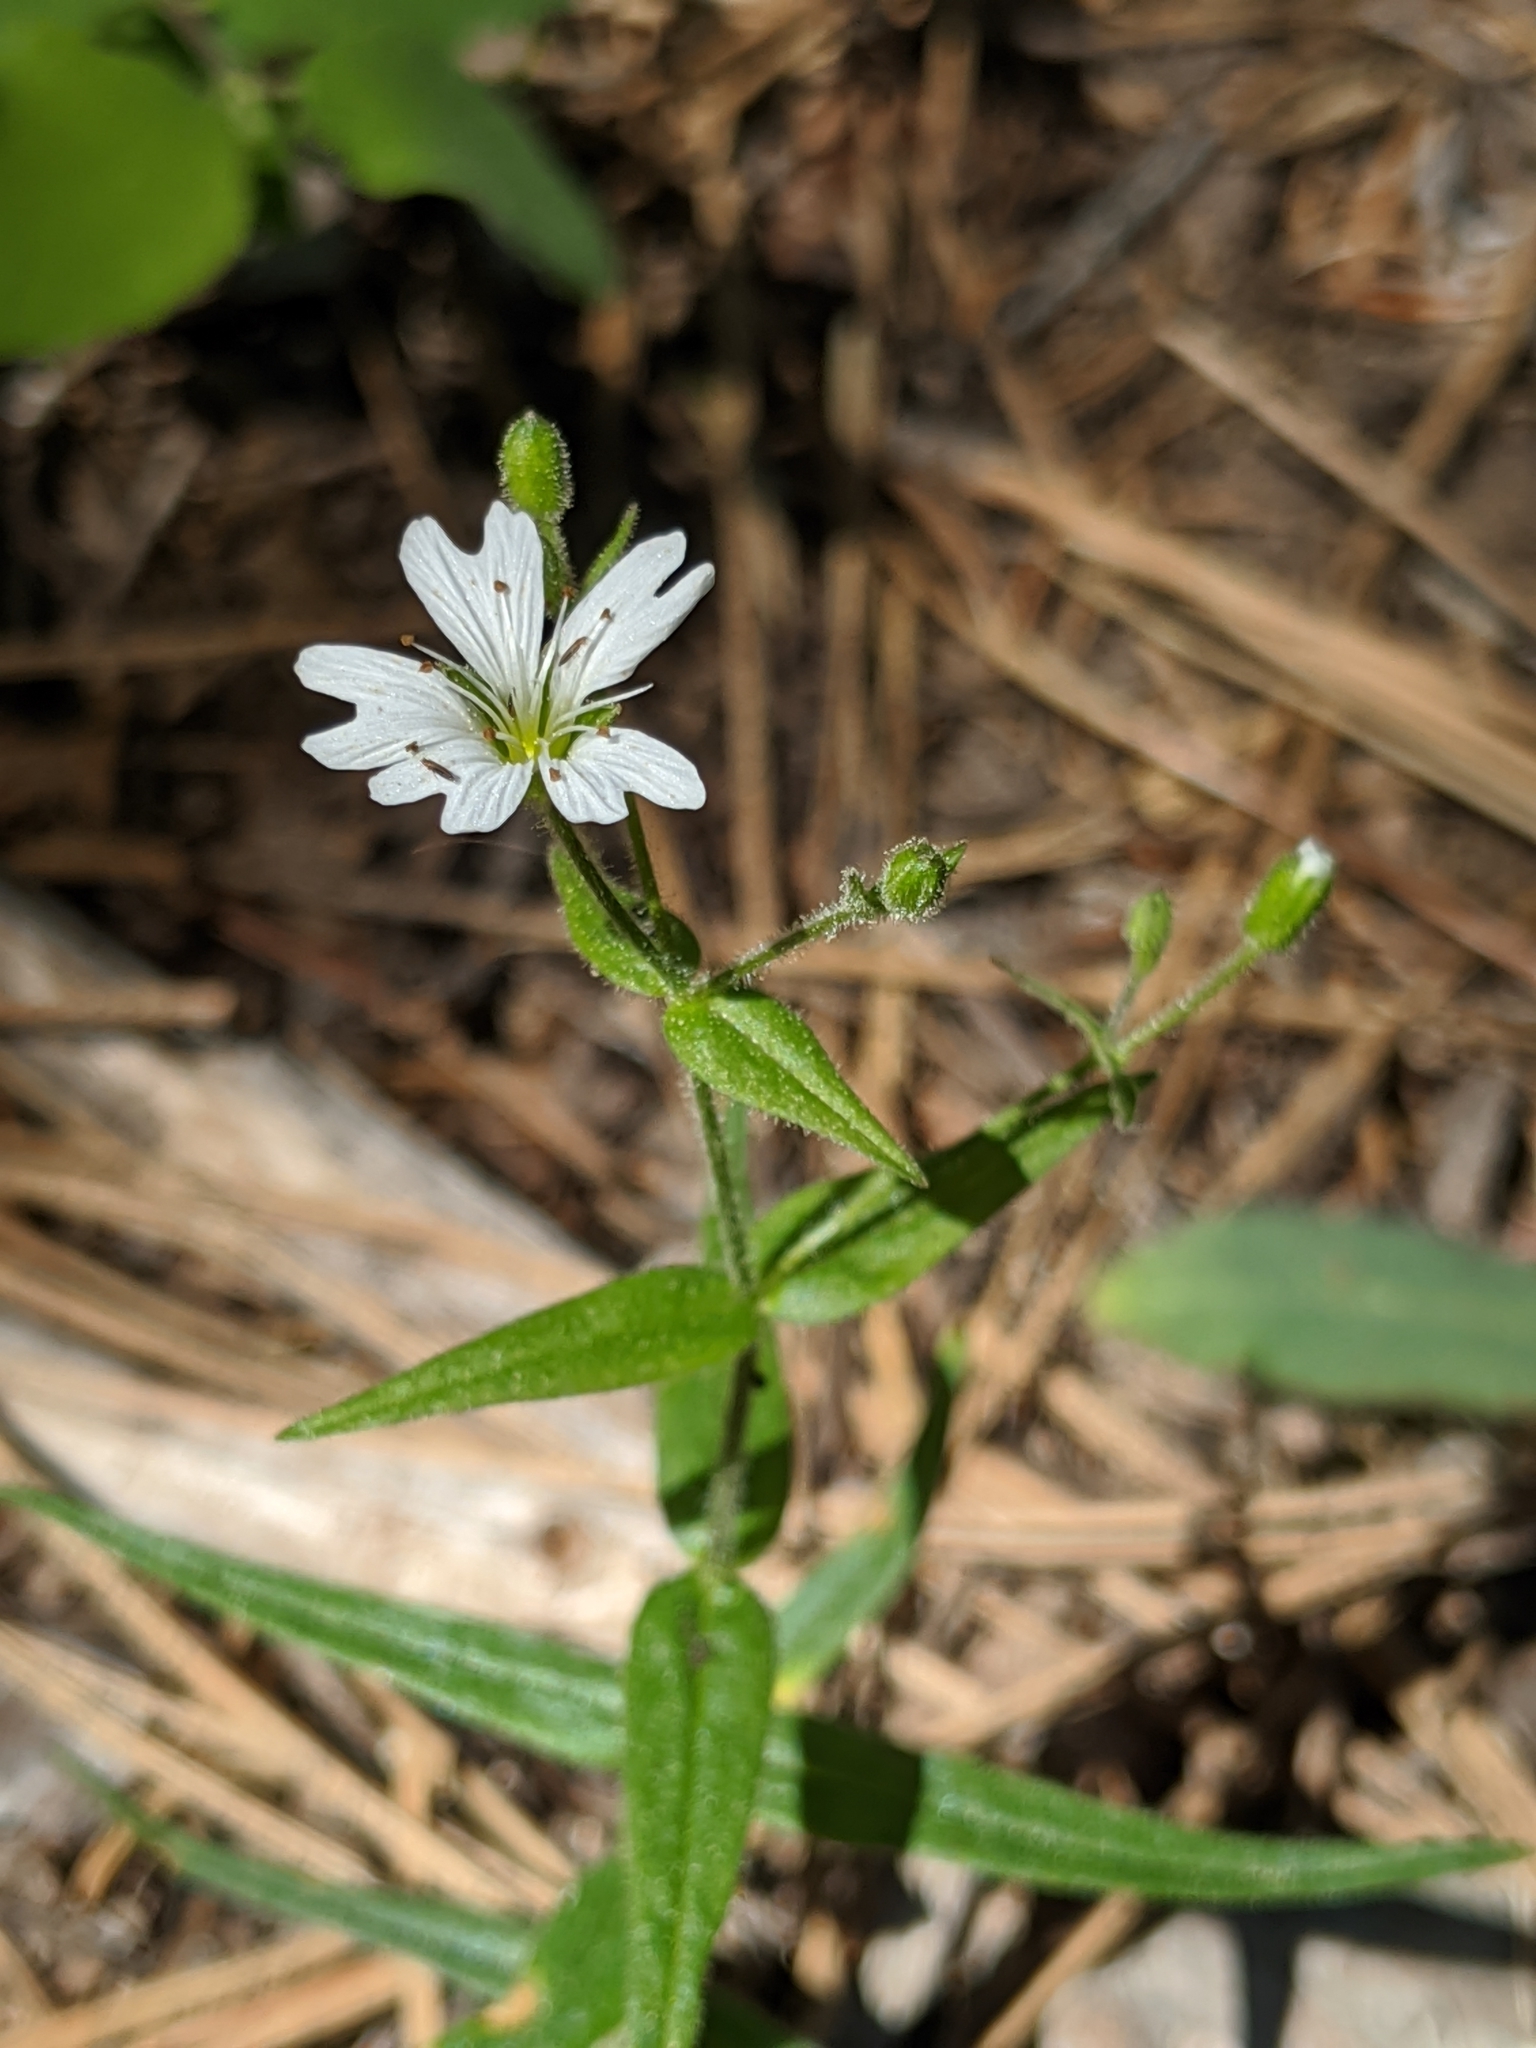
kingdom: Plantae
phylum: Tracheophyta
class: Magnoliopsida
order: Caryophyllales
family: Caryophyllaceae
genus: Schizotechium
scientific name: Schizotechium jamesianum
